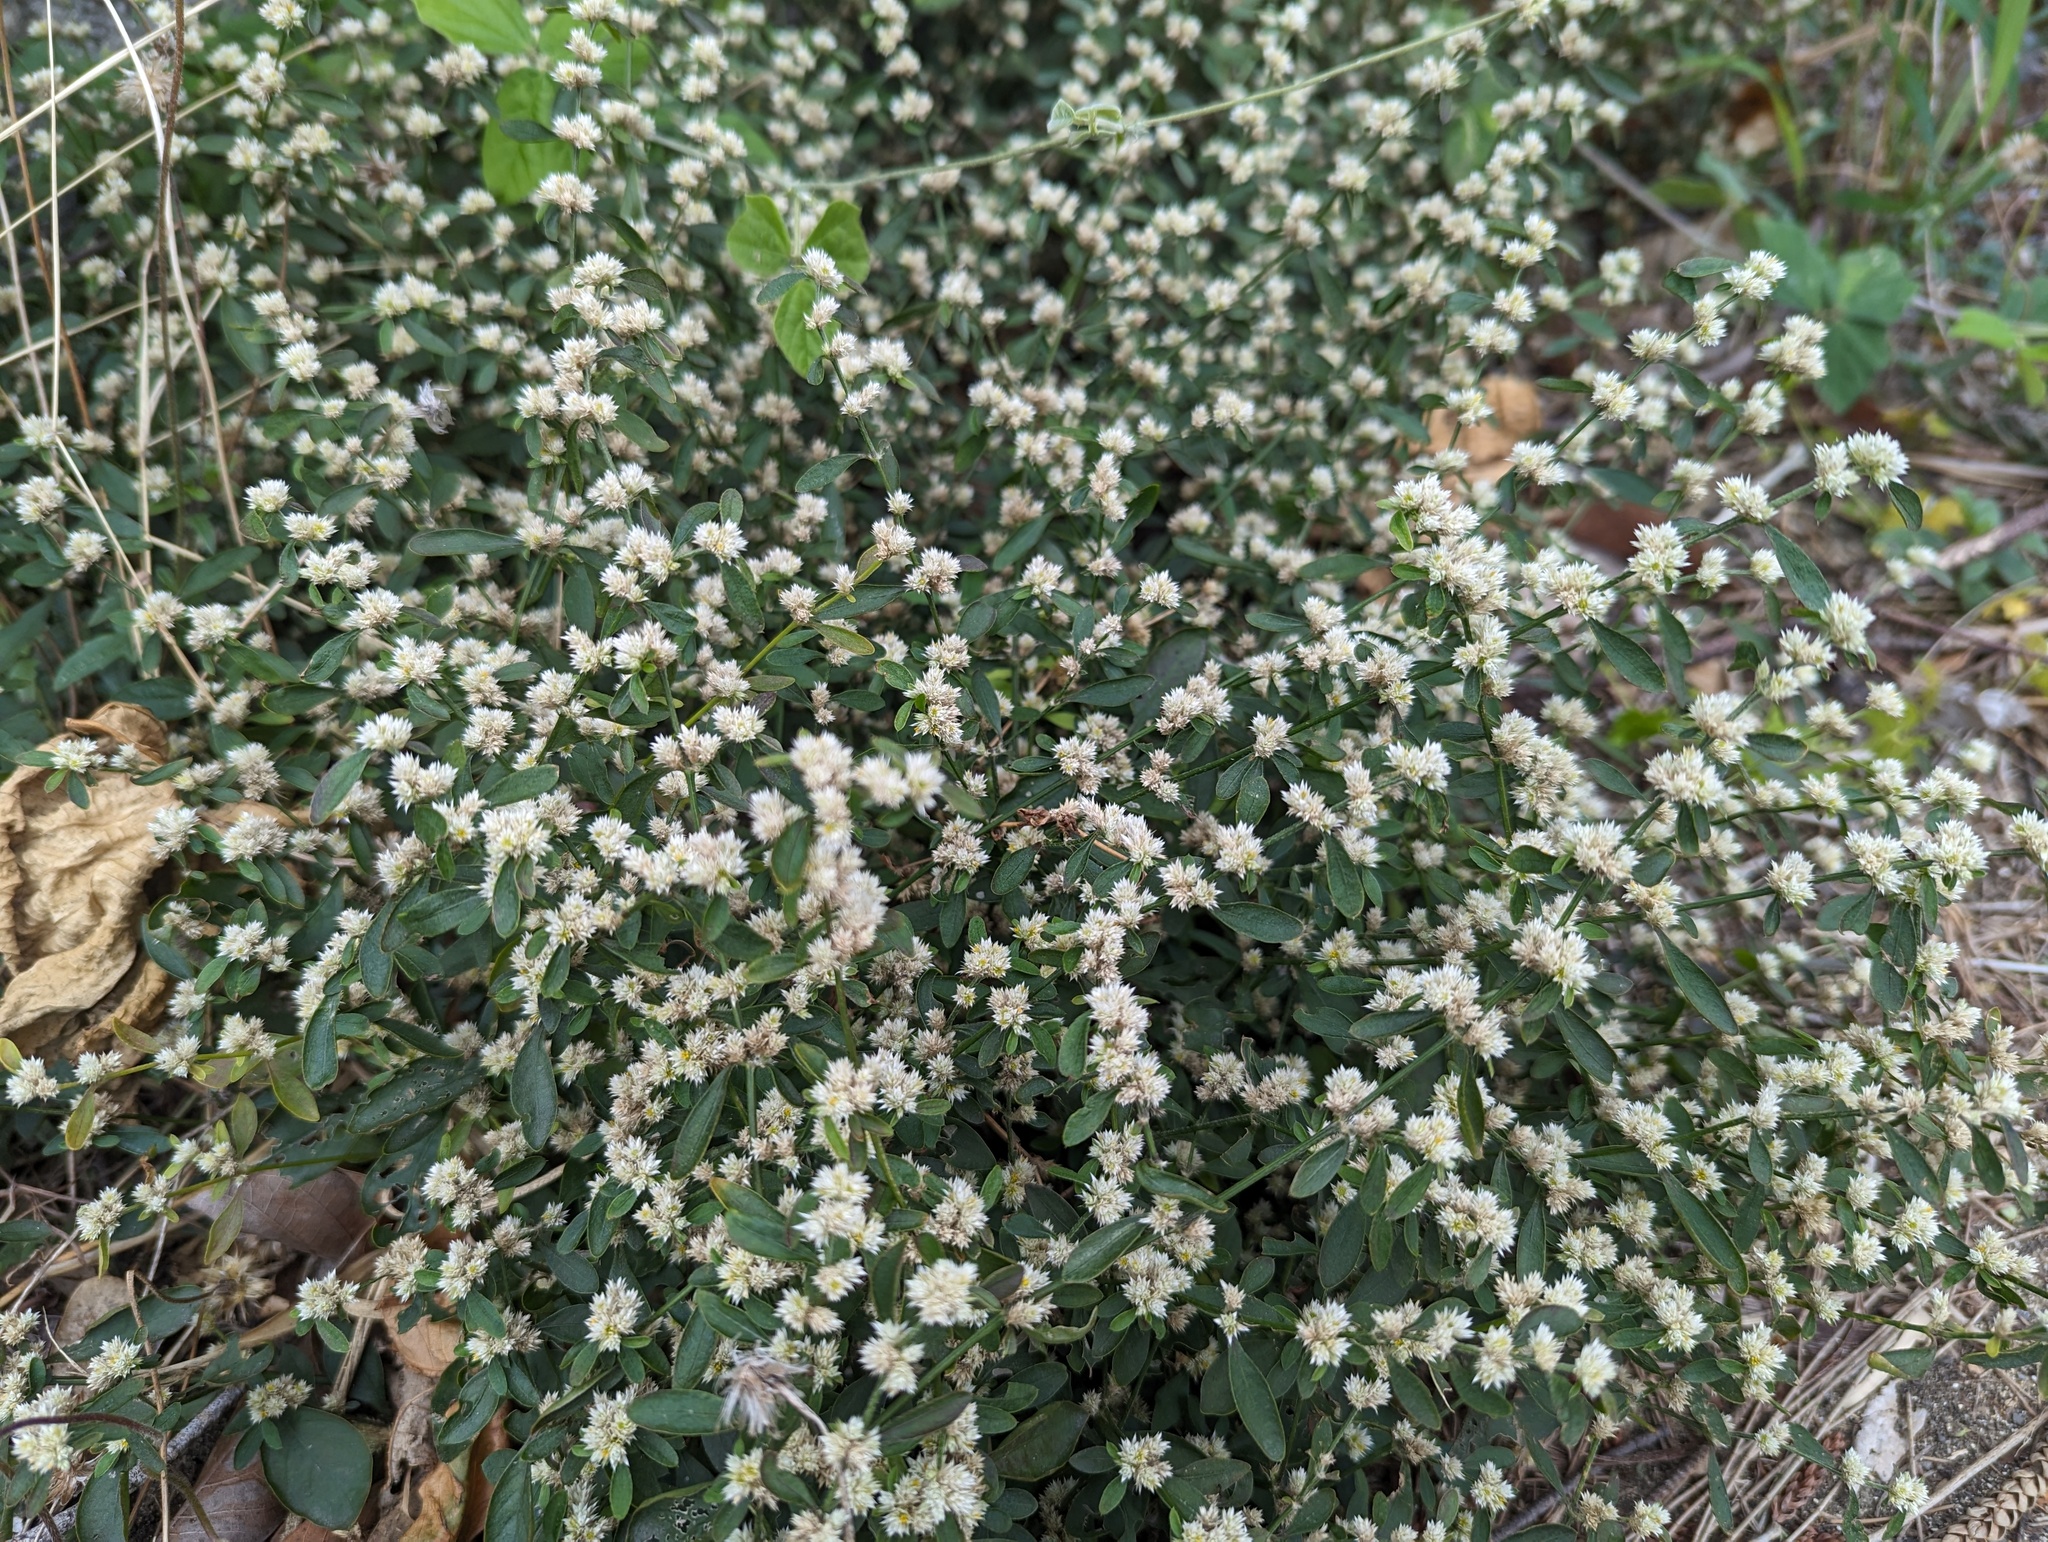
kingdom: Plantae
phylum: Tracheophyta
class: Magnoliopsida
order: Caryophyllales
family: Amaranthaceae
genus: Alternanthera
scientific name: Alternanthera ficoidea
